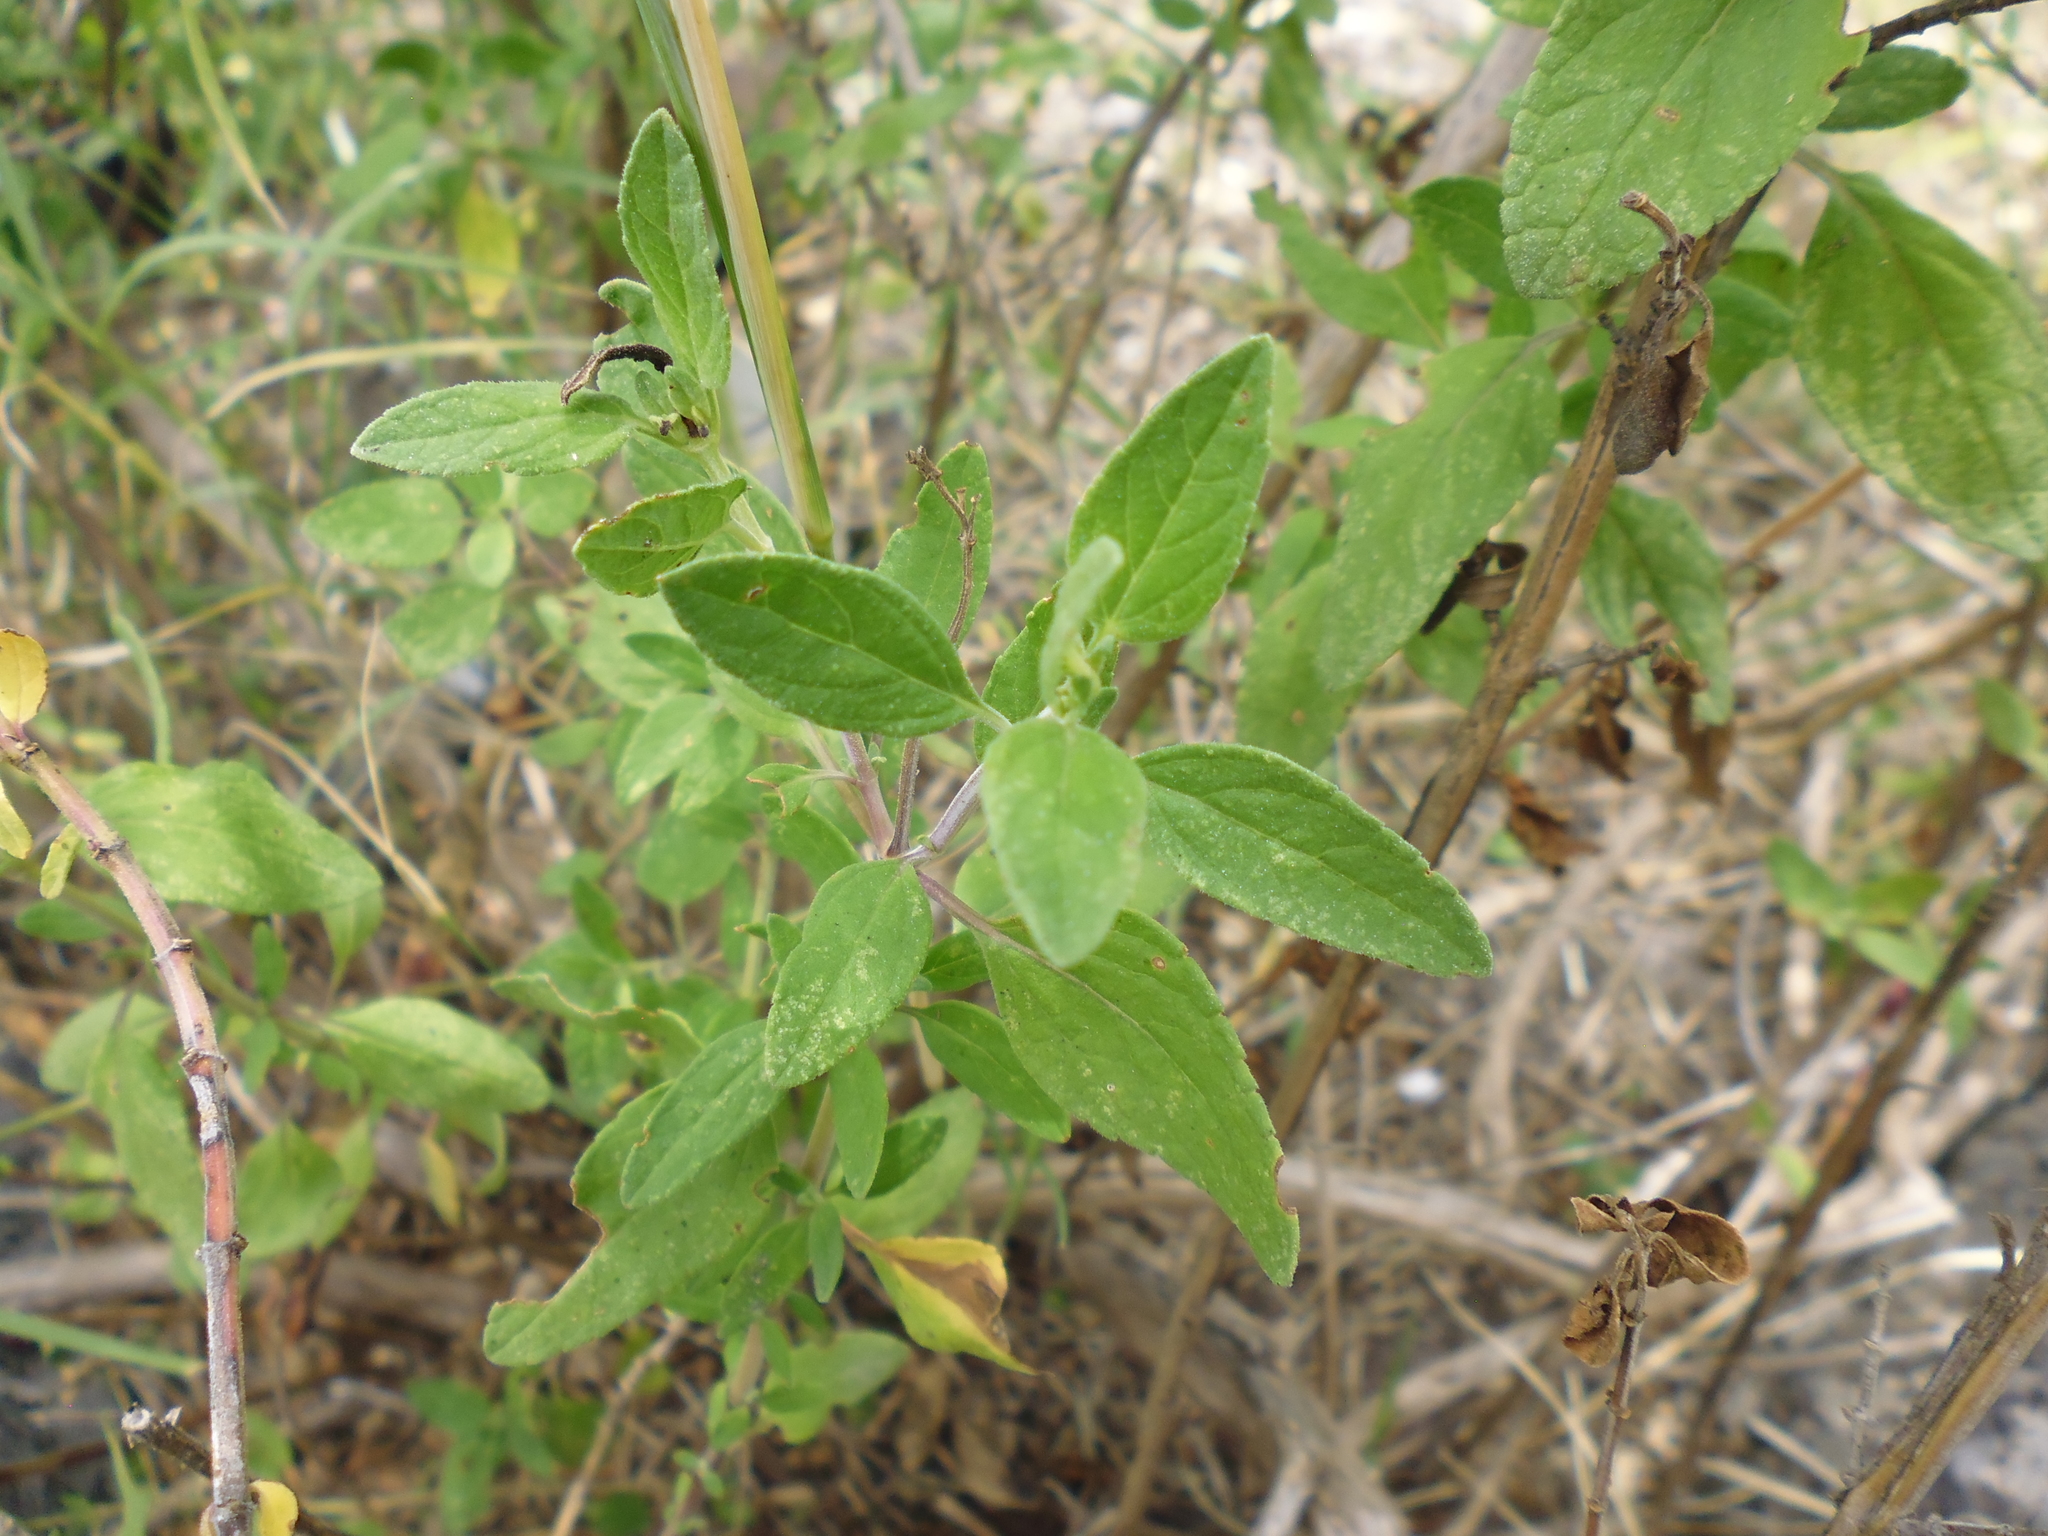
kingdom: Plantae
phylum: Tracheophyta
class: Magnoliopsida
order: Lamiales
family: Lamiaceae
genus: Salvia
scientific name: Salvia microphylla
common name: Baby sage
